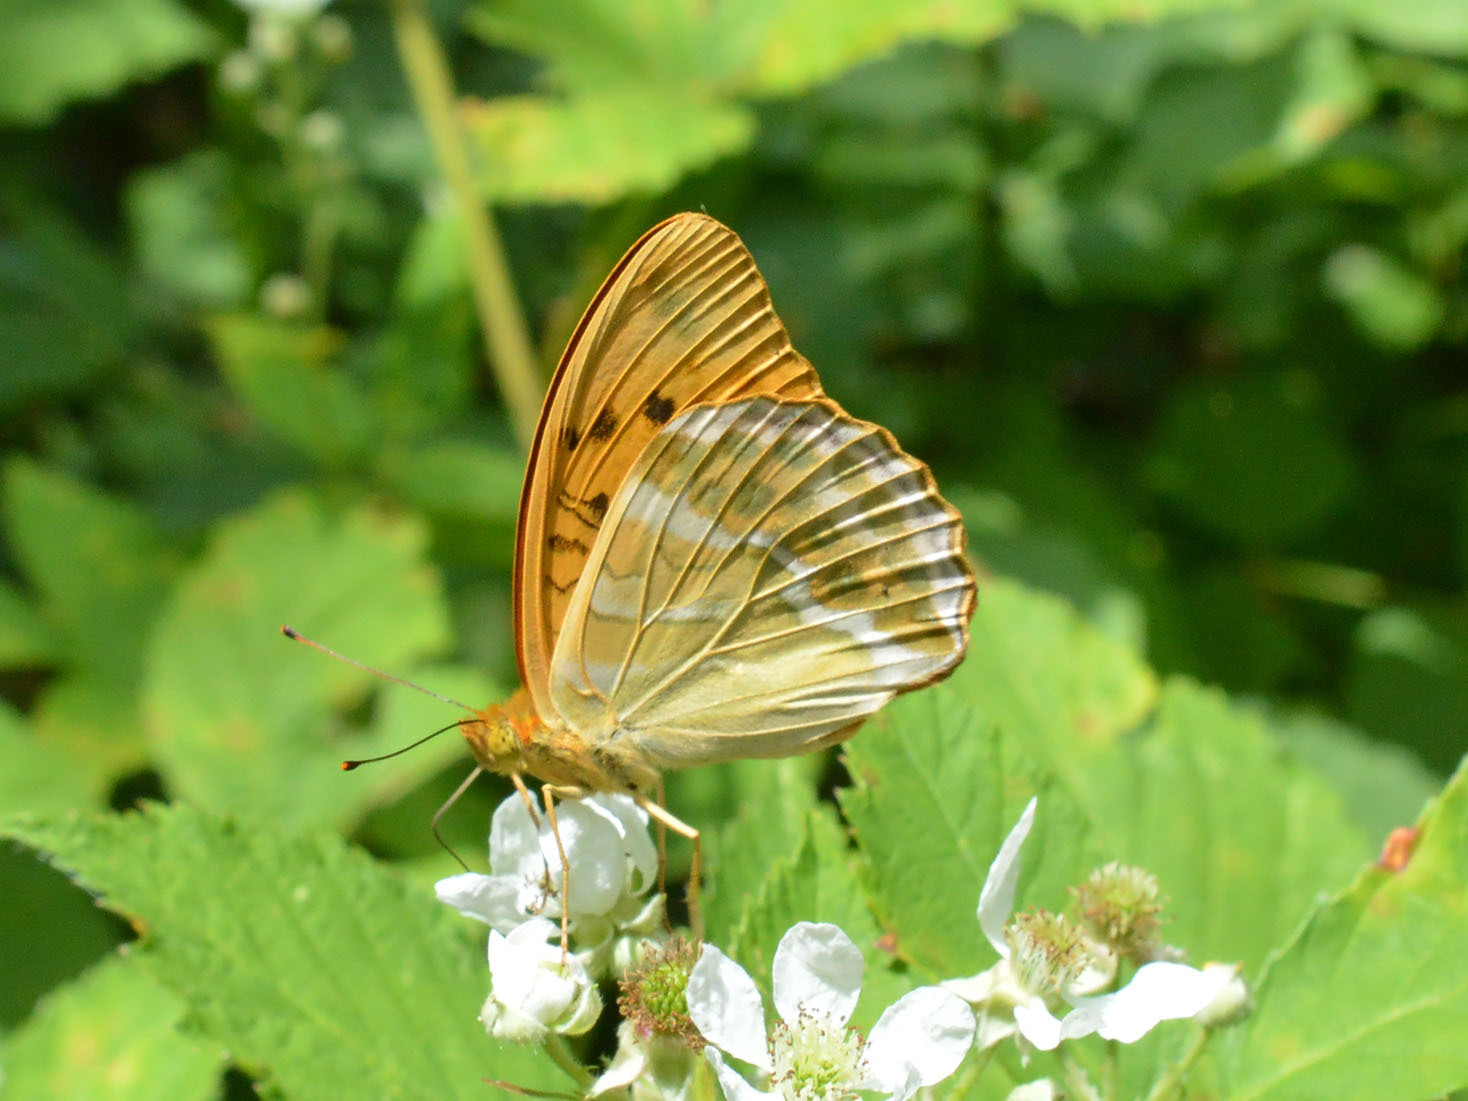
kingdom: Animalia
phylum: Arthropoda
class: Insecta
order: Lepidoptera
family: Nymphalidae
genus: Argynnis
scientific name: Argynnis paphia
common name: Silver-washed fritillary
